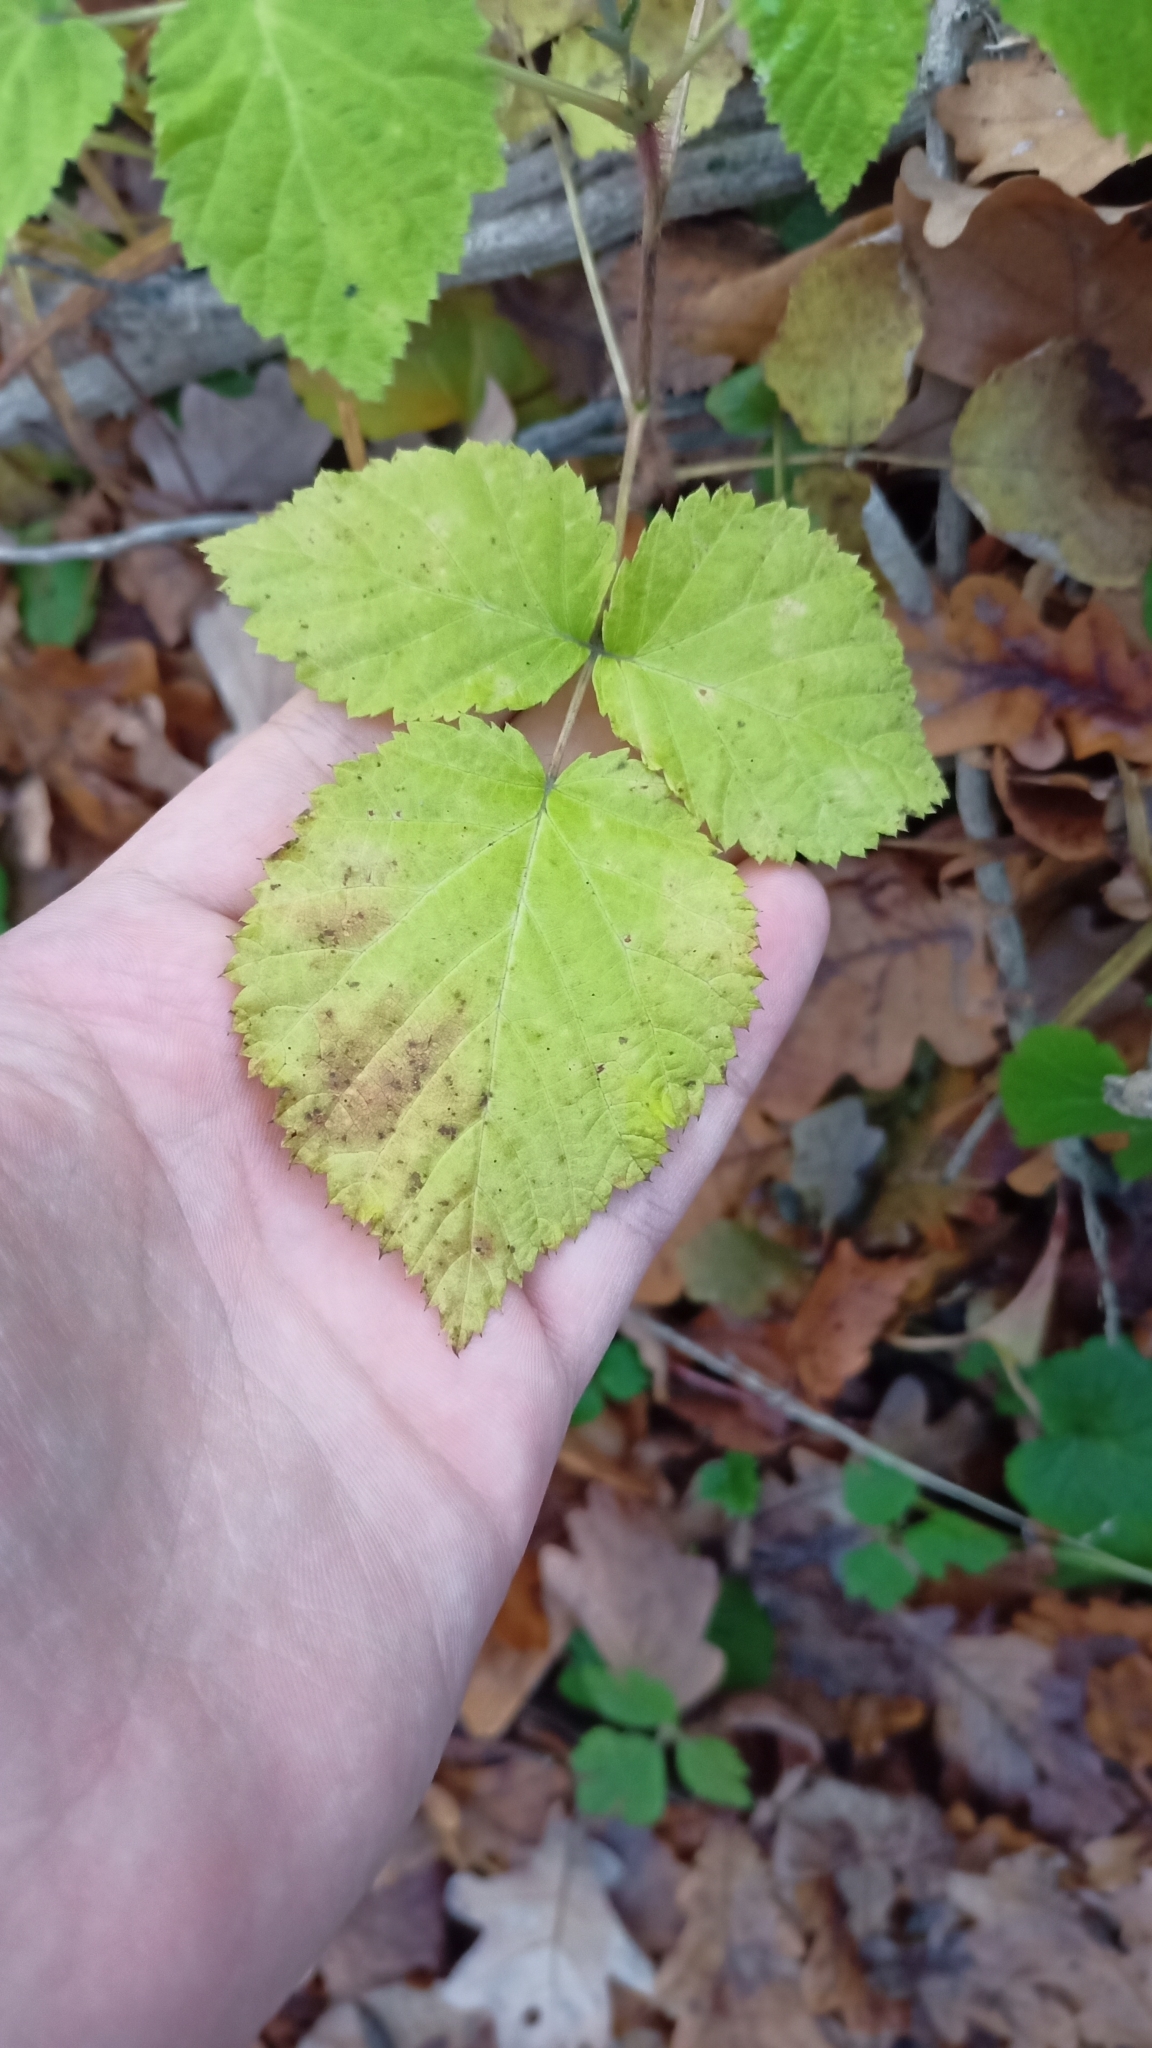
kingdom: Plantae
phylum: Tracheophyta
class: Magnoliopsida
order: Rosales
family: Rosaceae
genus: Rubus
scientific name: Rubus idaeus
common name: Raspberry
